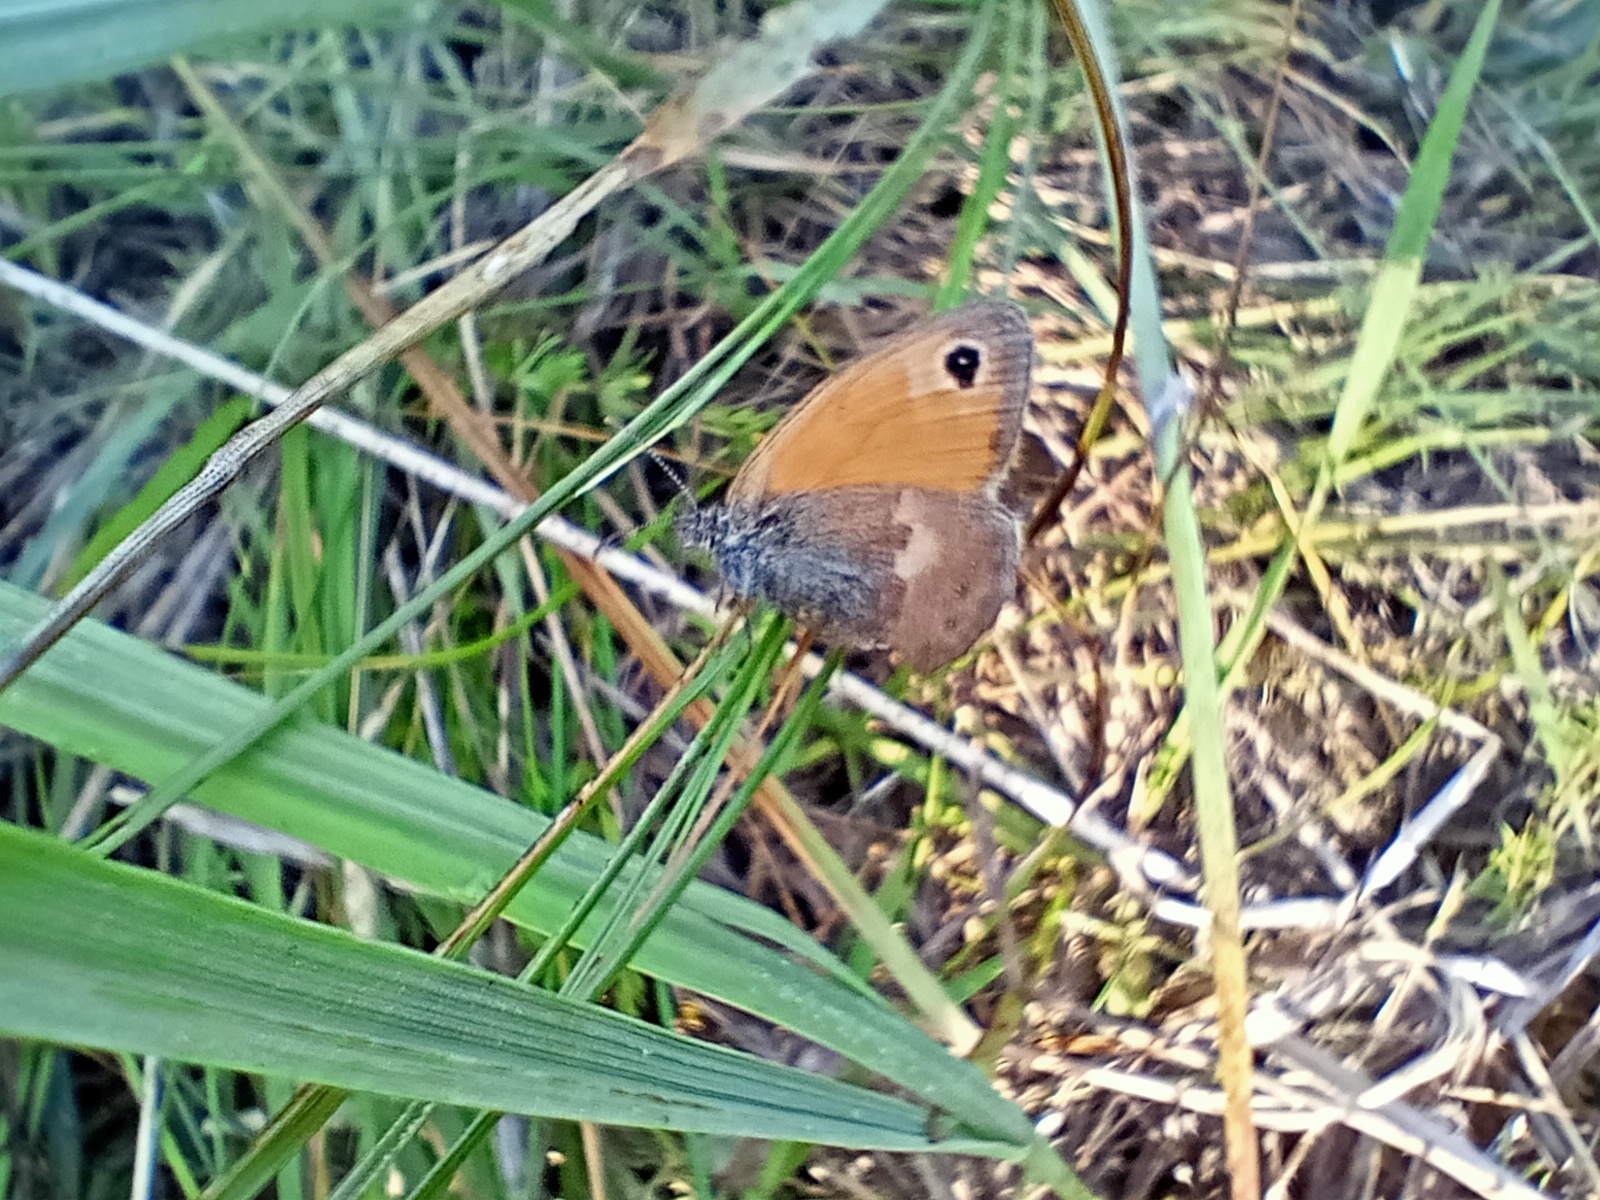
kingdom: Animalia
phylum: Arthropoda
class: Insecta
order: Lepidoptera
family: Nymphalidae
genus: Coenonympha
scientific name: Coenonympha pamphilus
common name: Small heath
